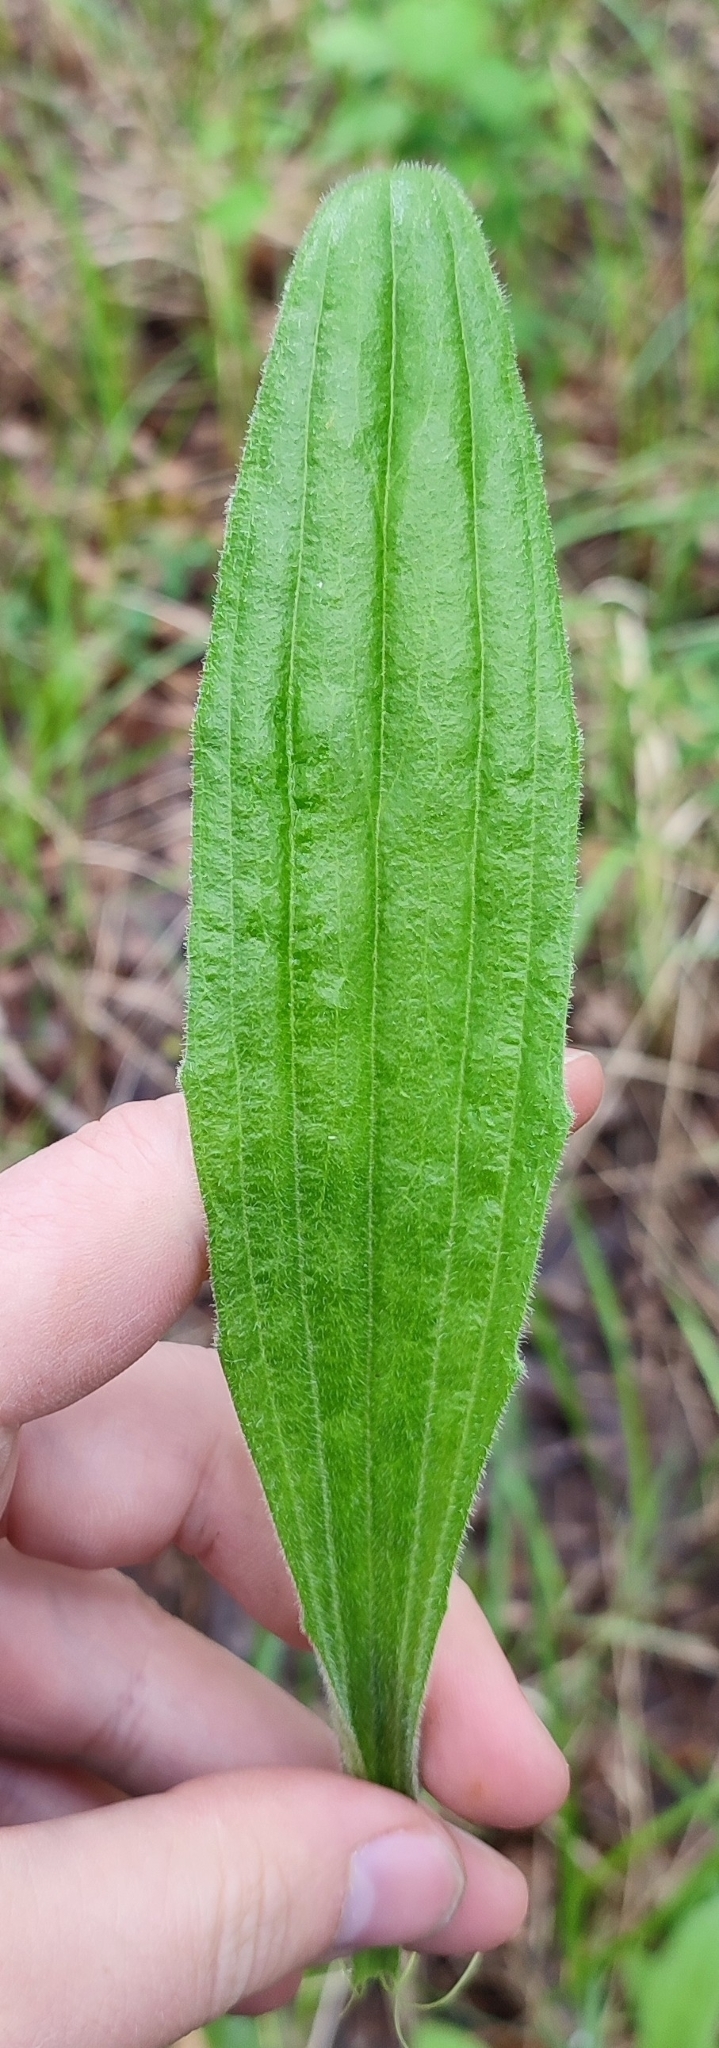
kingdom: Plantae
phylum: Tracheophyta
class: Magnoliopsida
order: Lamiales
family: Plantaginaceae
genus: Plantago
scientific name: Plantago urvillei
